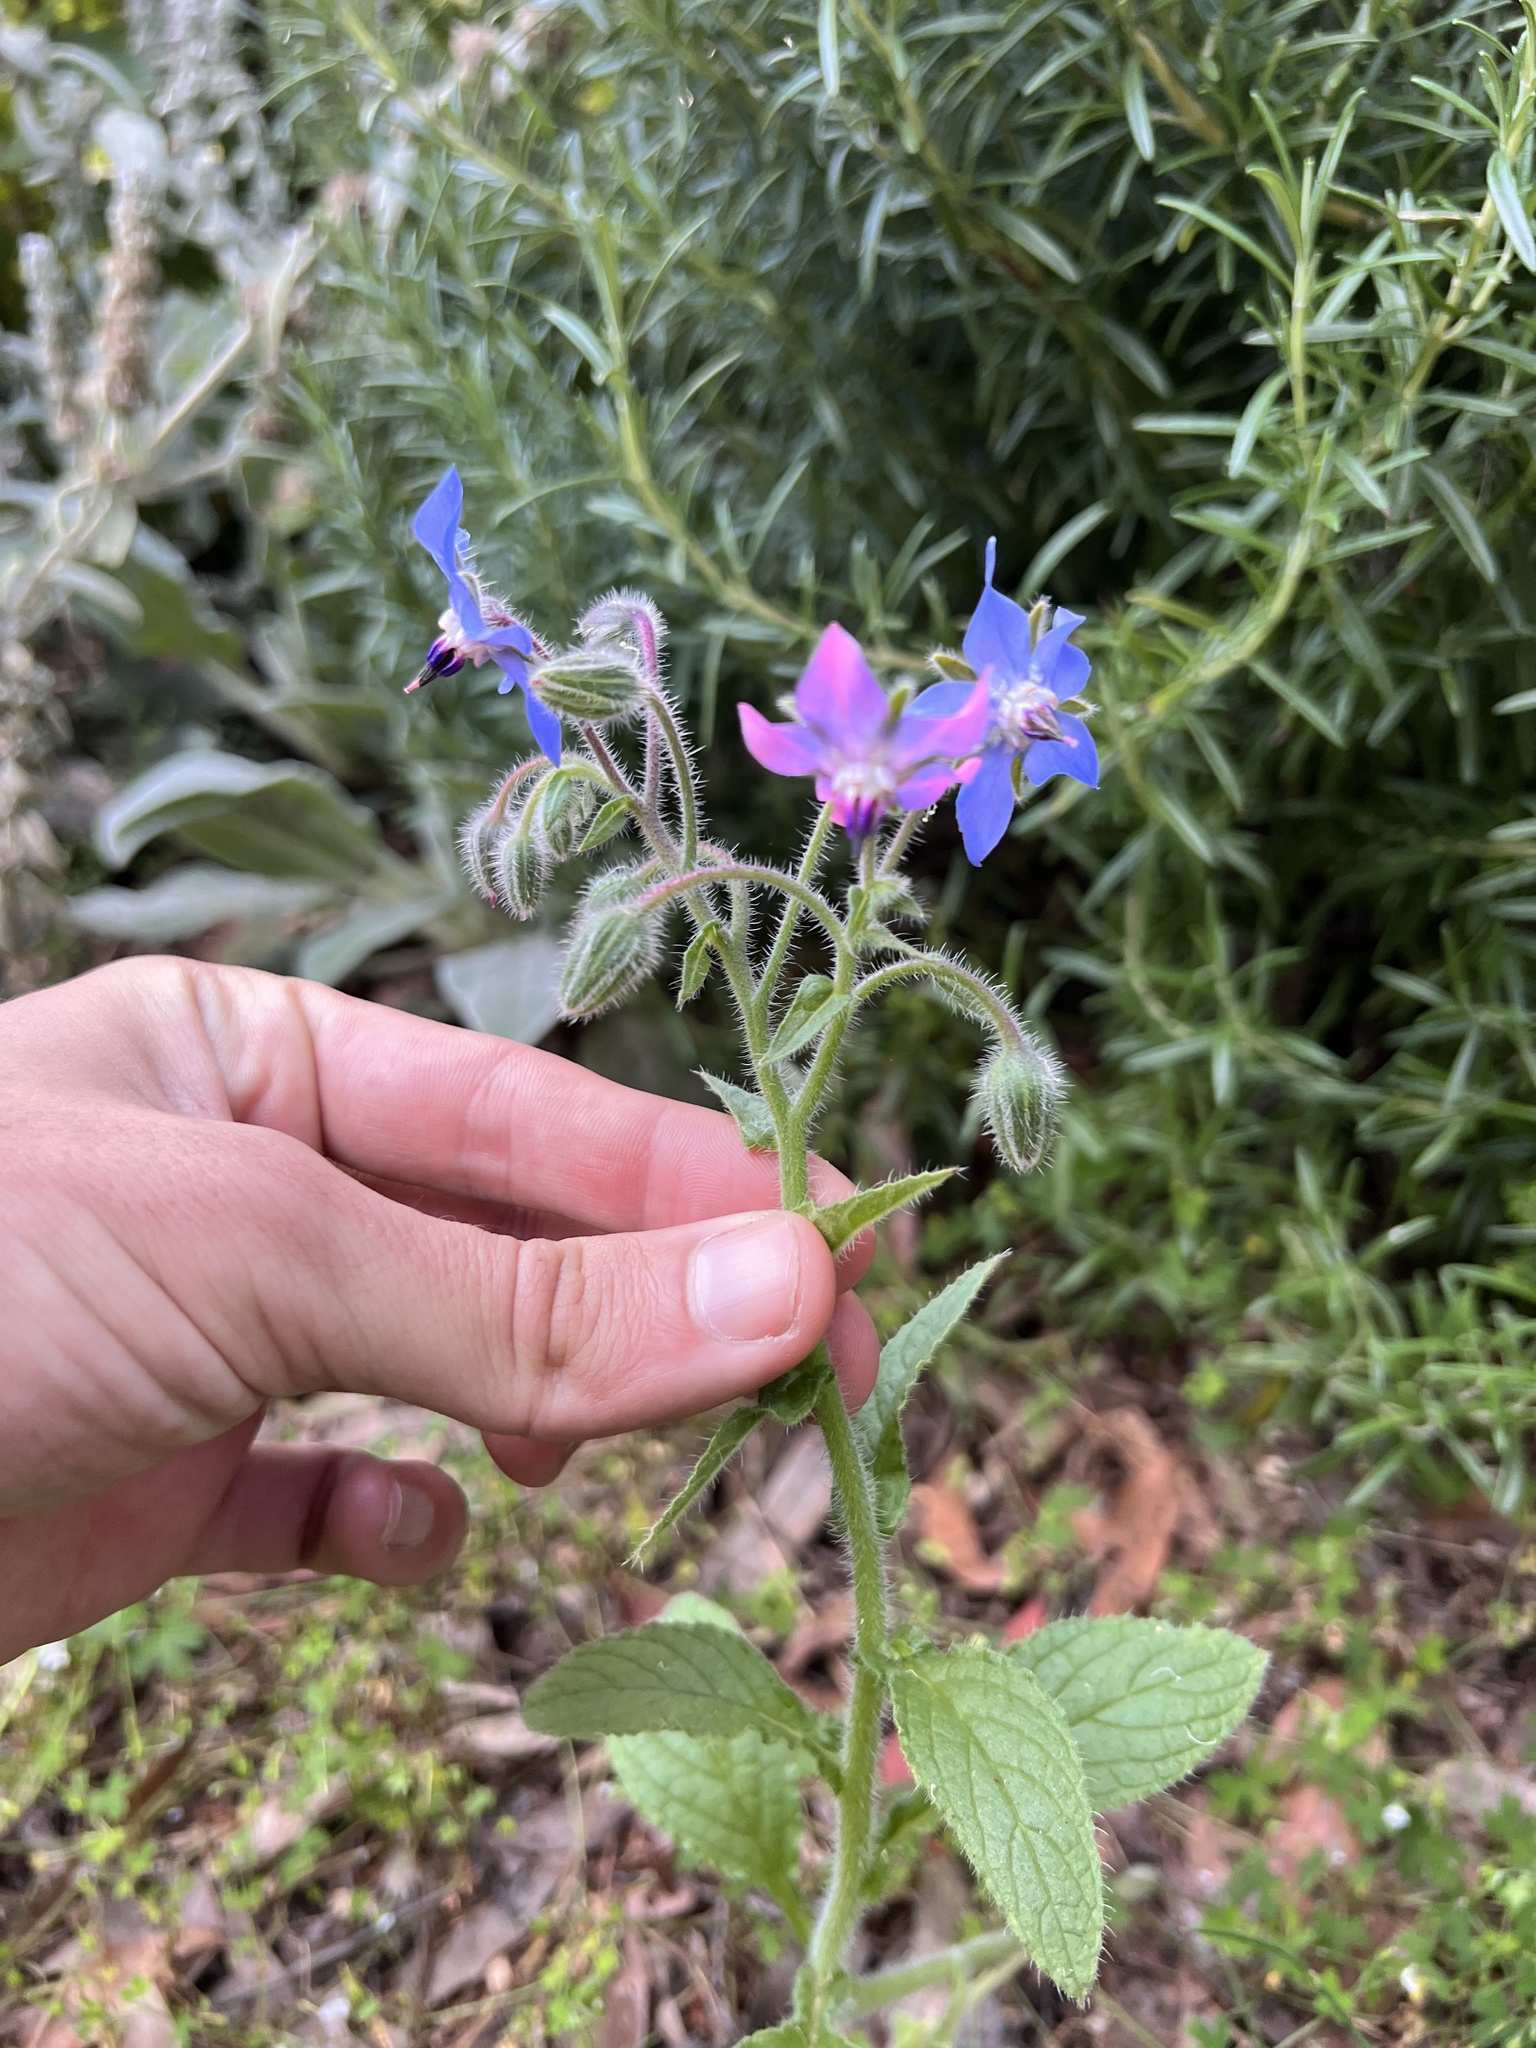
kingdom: Plantae
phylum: Tracheophyta
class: Magnoliopsida
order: Boraginales
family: Boraginaceae
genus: Borago
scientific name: Borago officinalis
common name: Borage
